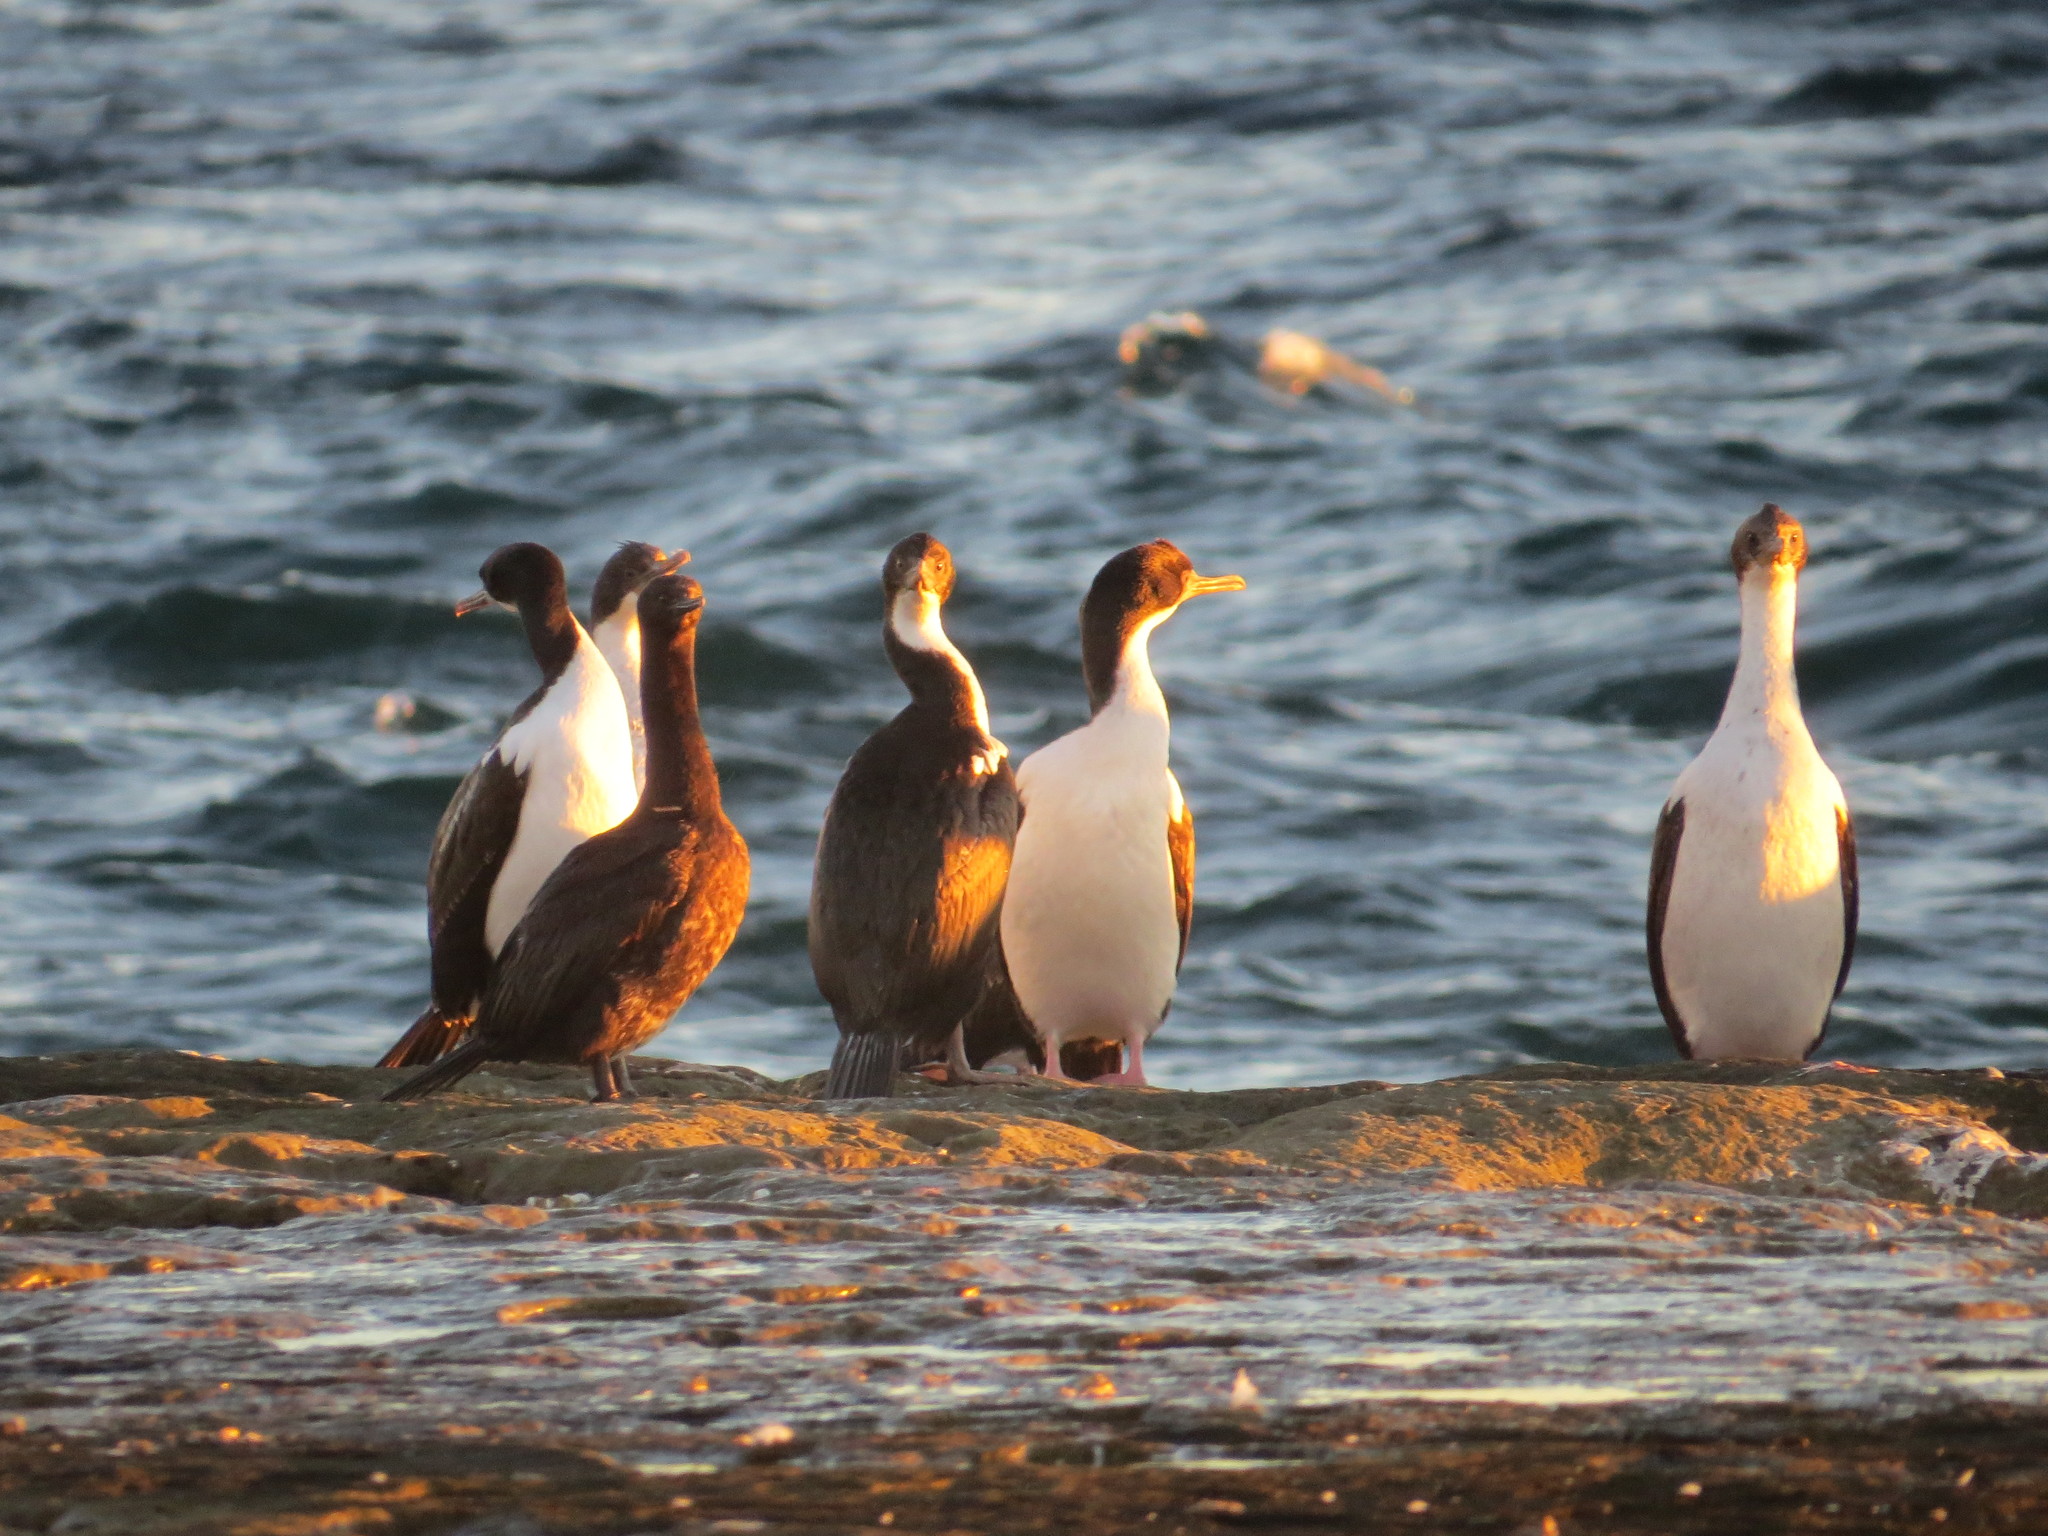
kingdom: Animalia
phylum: Chordata
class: Aves
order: Suliformes
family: Phalacrocoracidae
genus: Leucocarbo
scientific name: Leucocarbo atriceps
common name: Imperial shag
